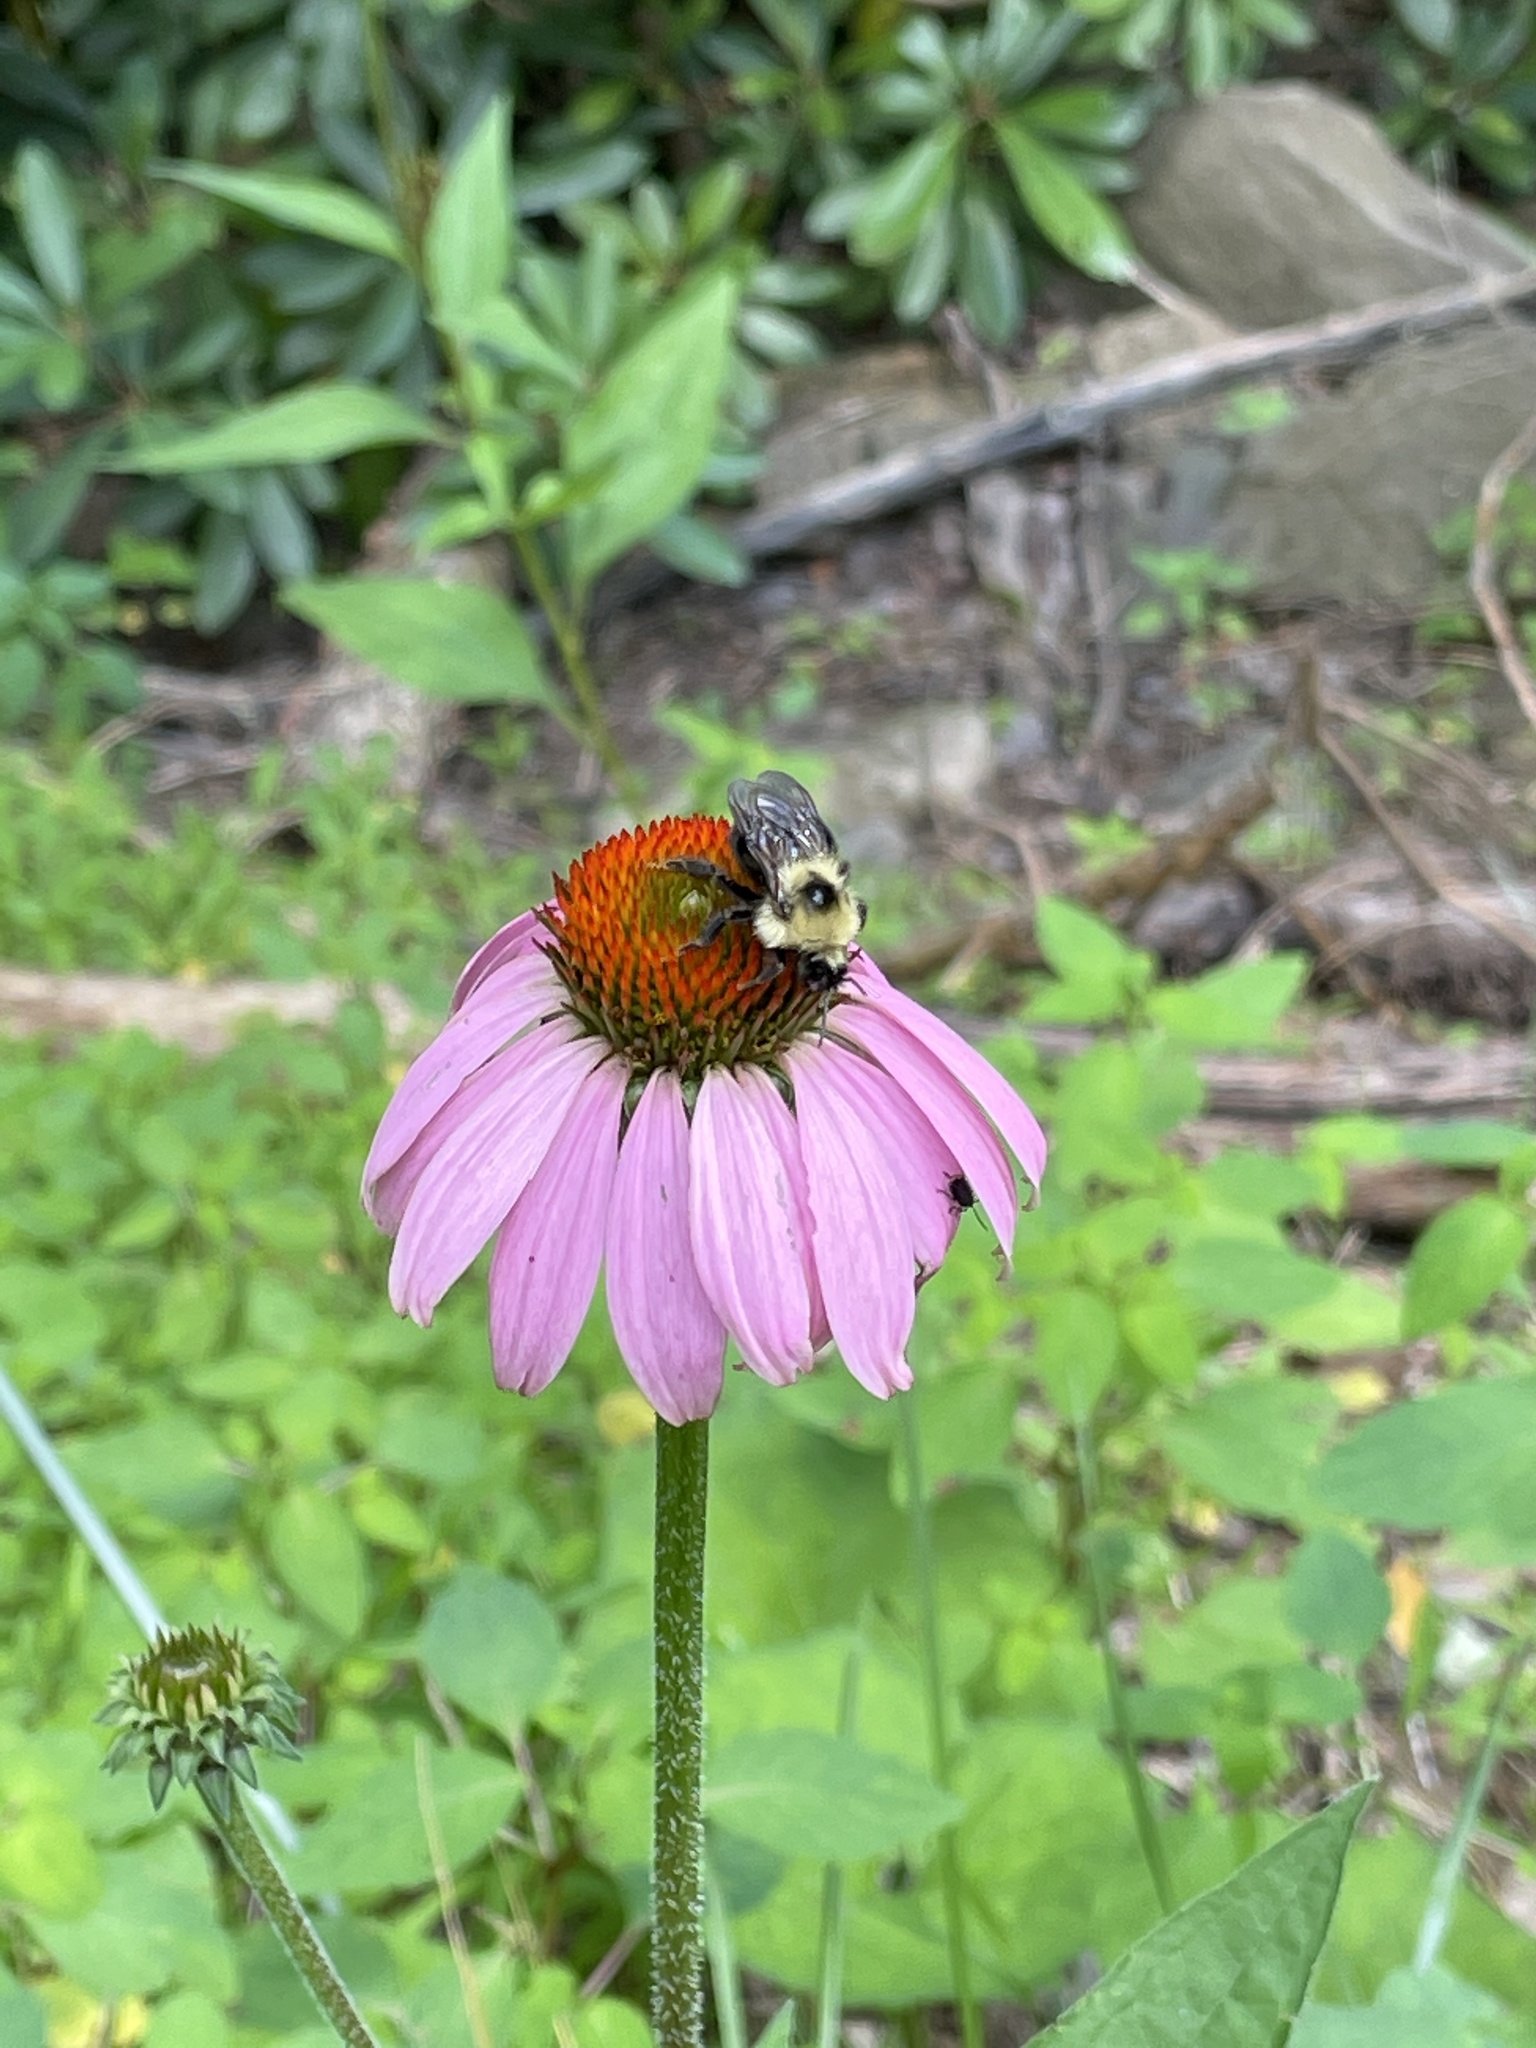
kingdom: Plantae
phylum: Tracheophyta
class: Magnoliopsida
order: Asterales
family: Asteraceae
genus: Echinacea
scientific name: Echinacea purpurea
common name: Broad-leaved purple coneflower
